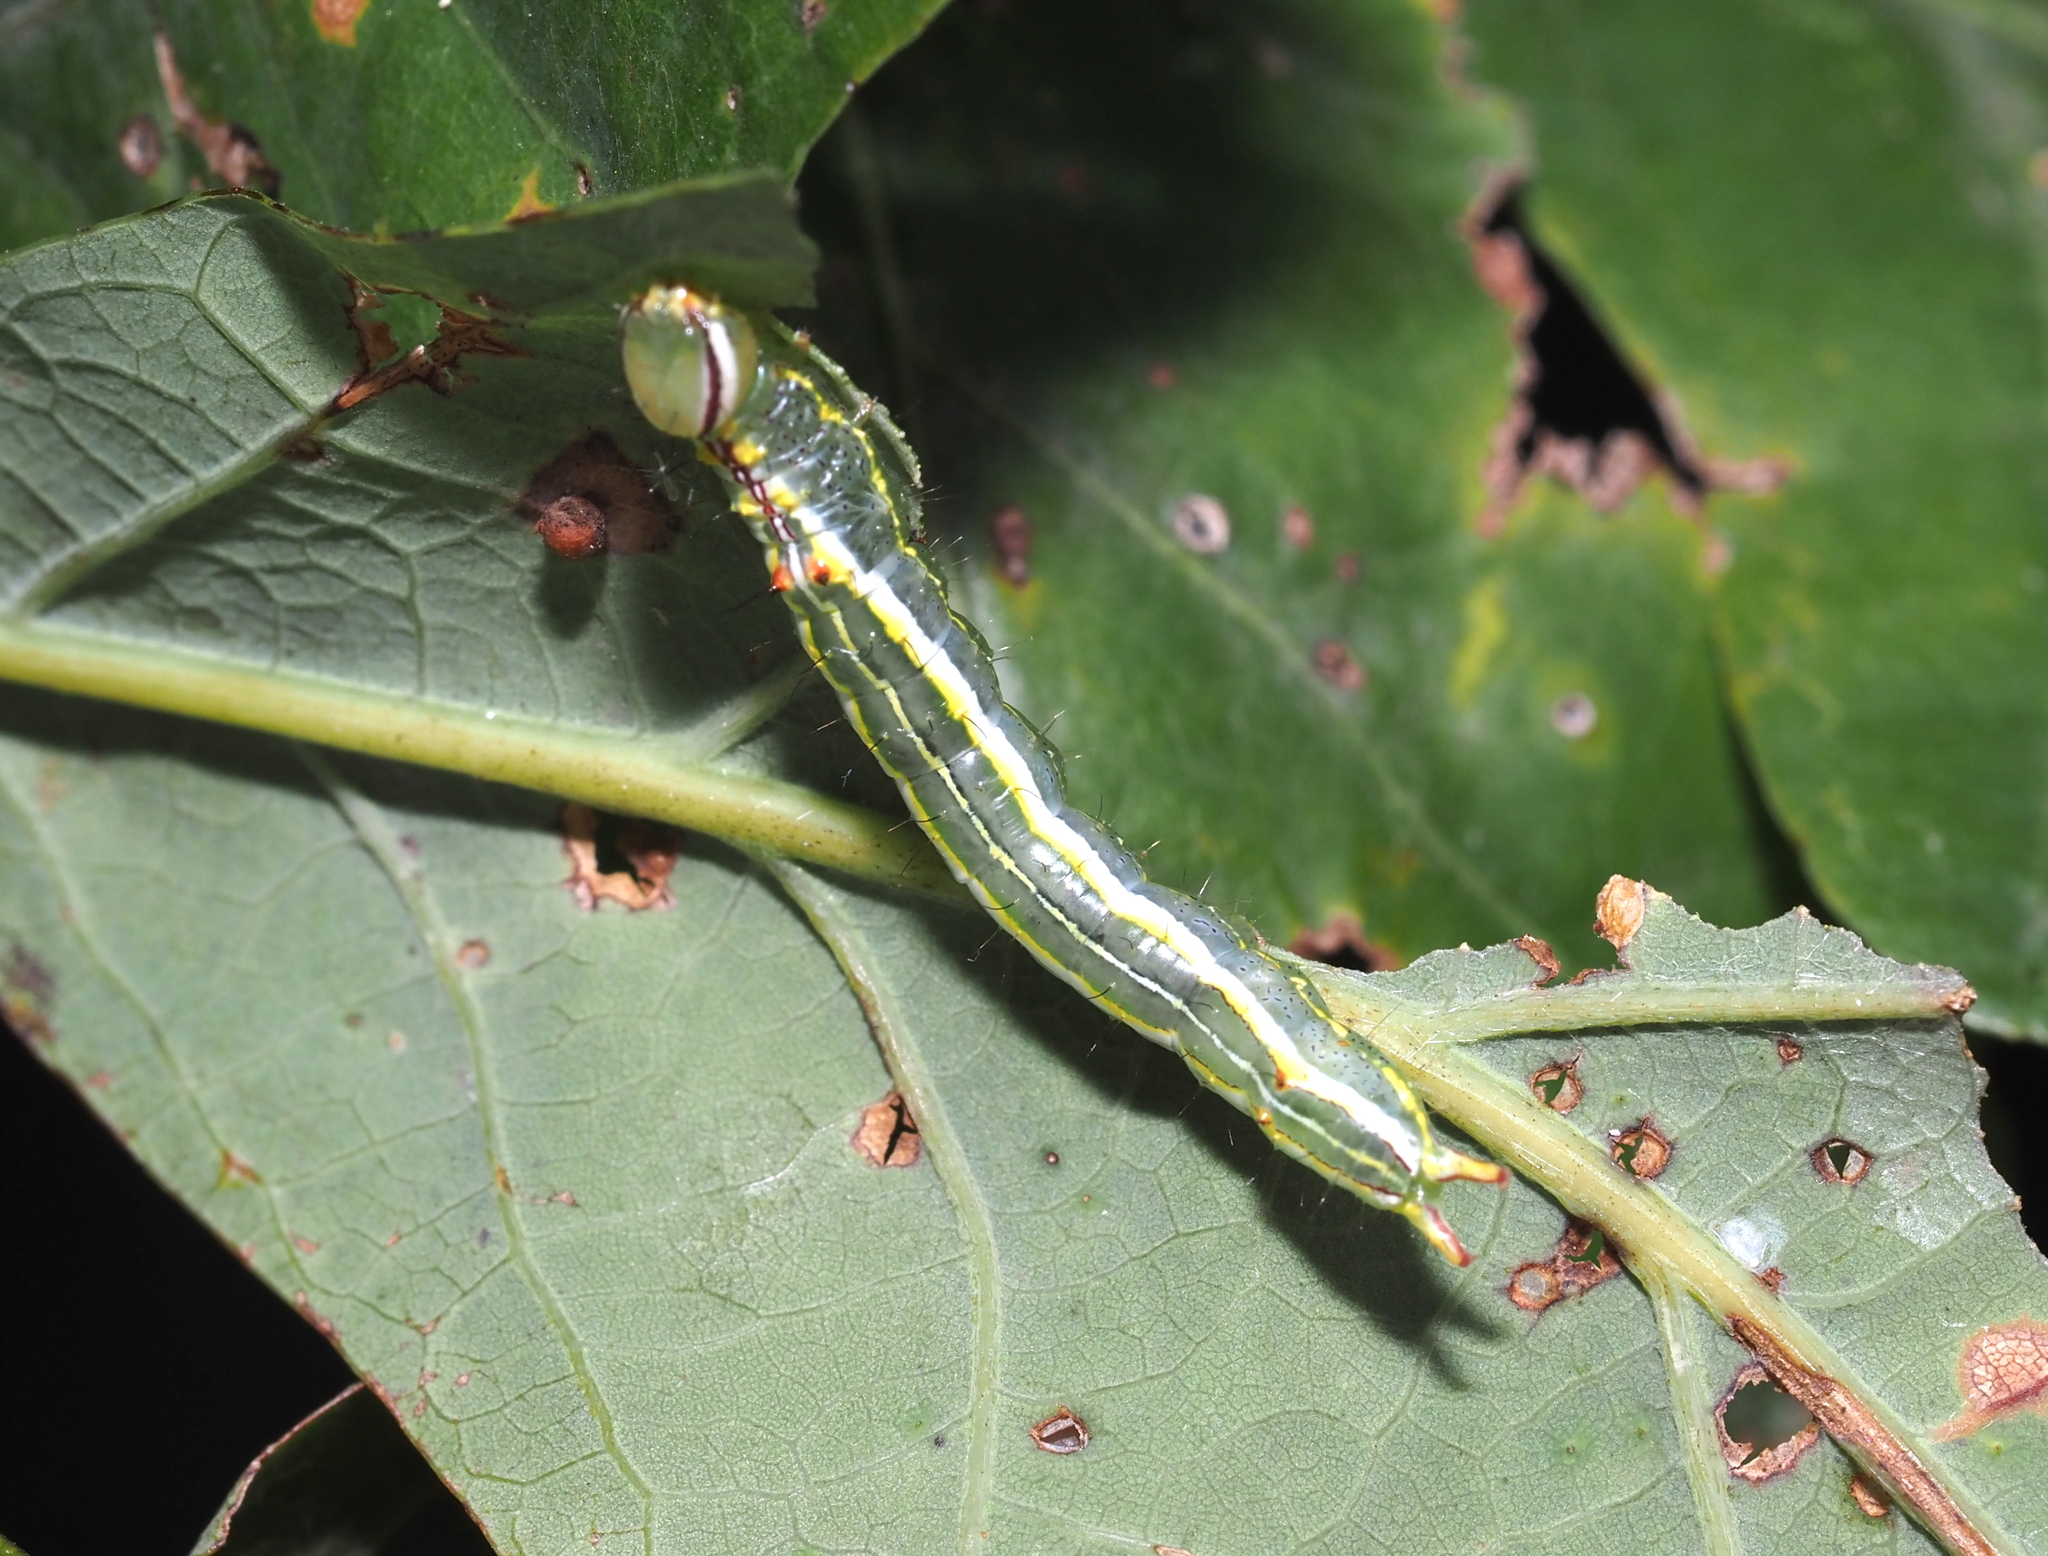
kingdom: Animalia
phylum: Arthropoda
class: Insecta
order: Lepidoptera
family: Notodontidae
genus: Lochmaeus
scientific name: Lochmaeus manteo
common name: Variable oakleaf caterpillar moth
